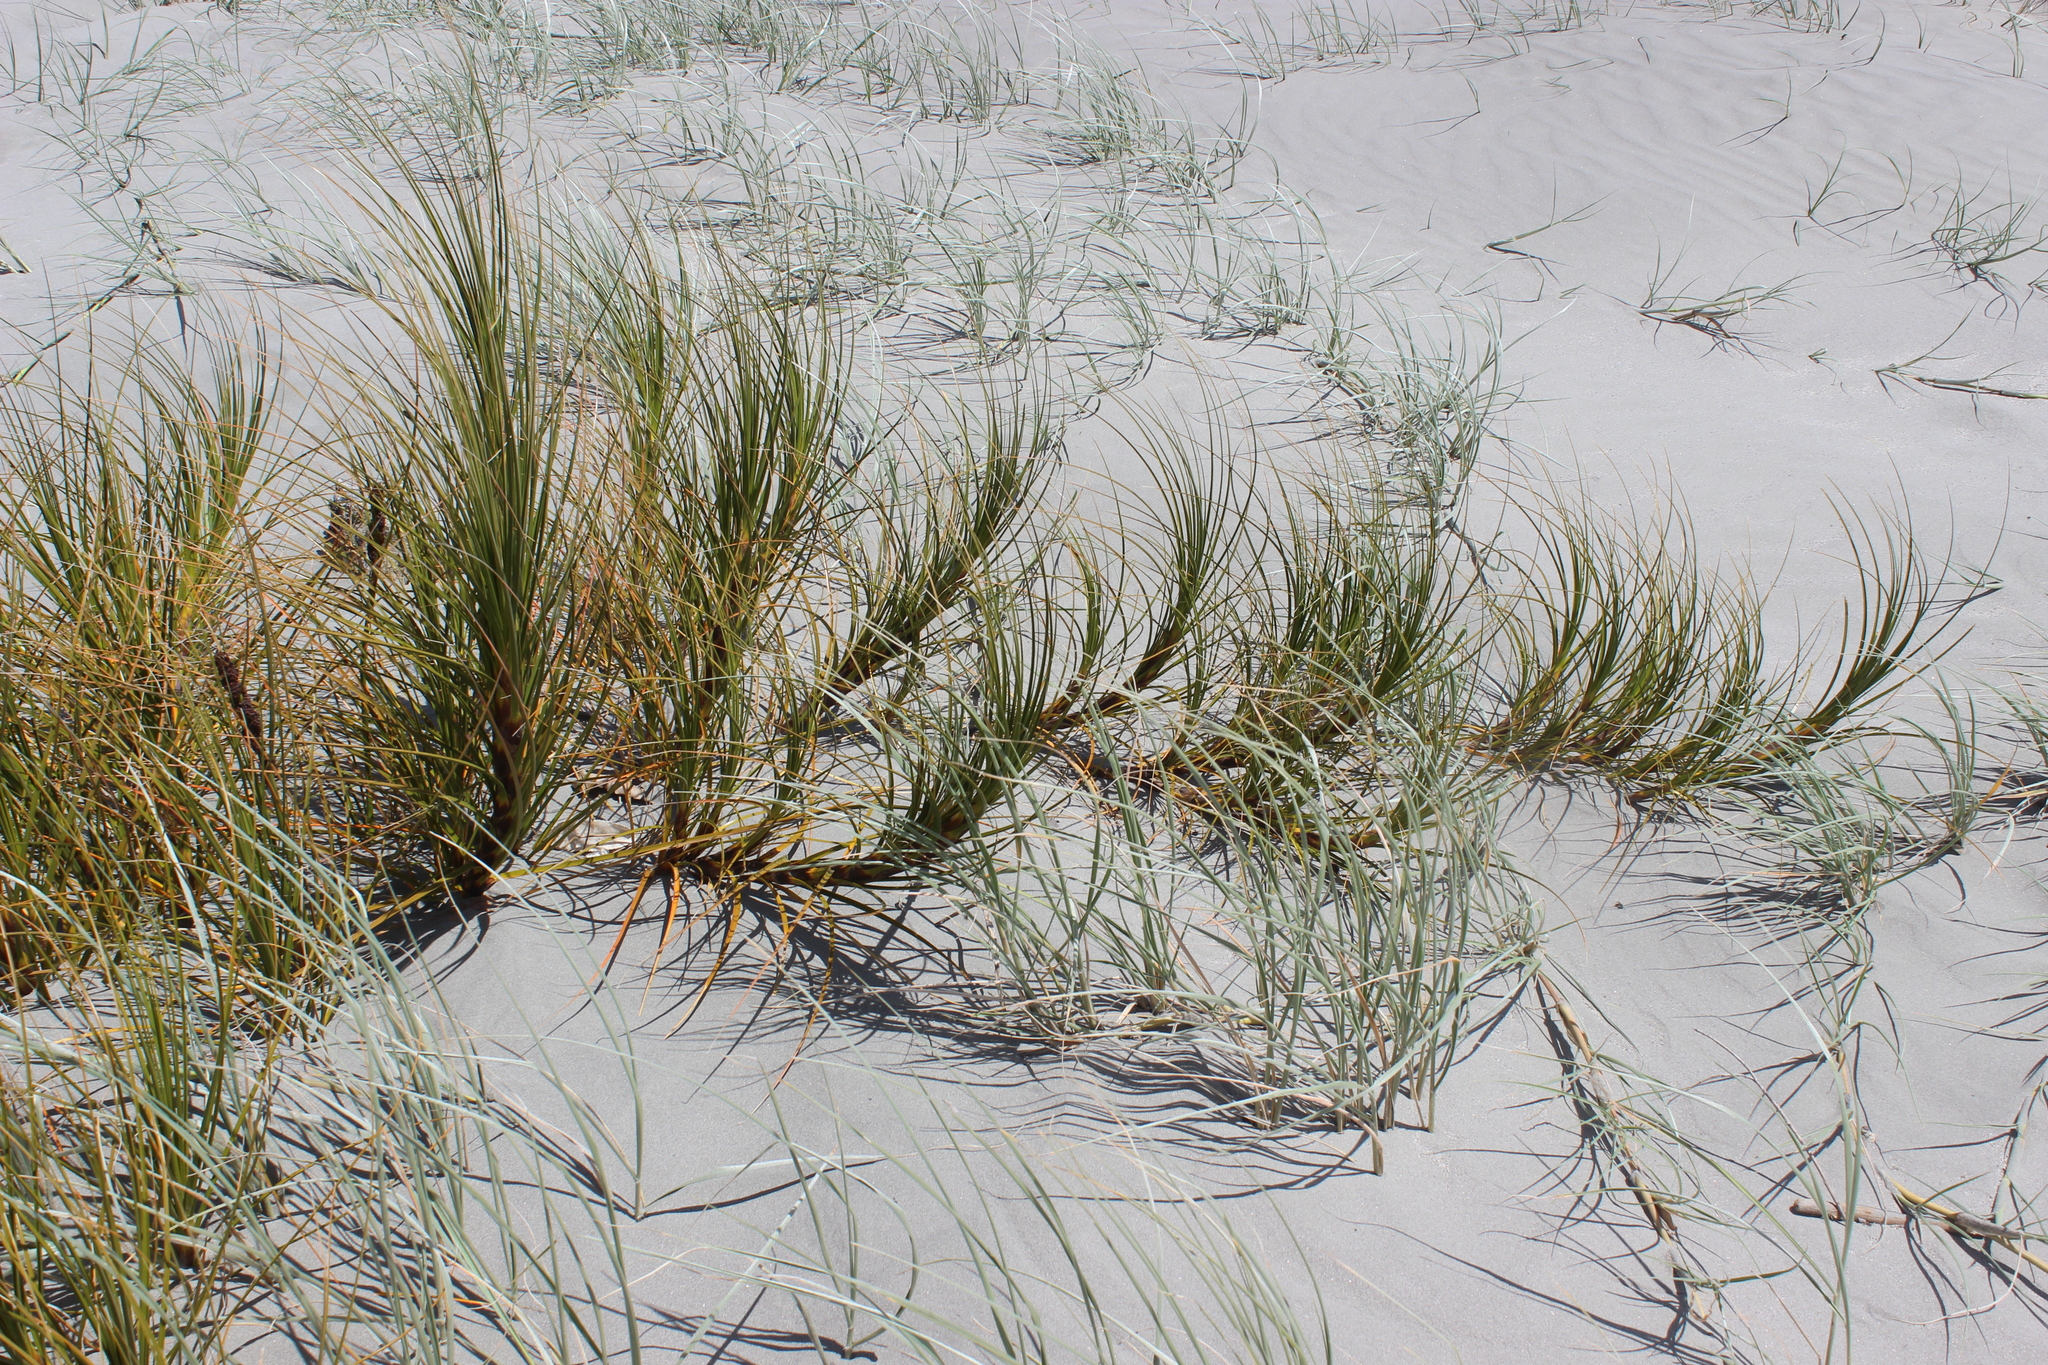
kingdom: Plantae
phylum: Tracheophyta
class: Liliopsida
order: Poales
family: Cyperaceae
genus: Ficinia
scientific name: Ficinia spiralis
